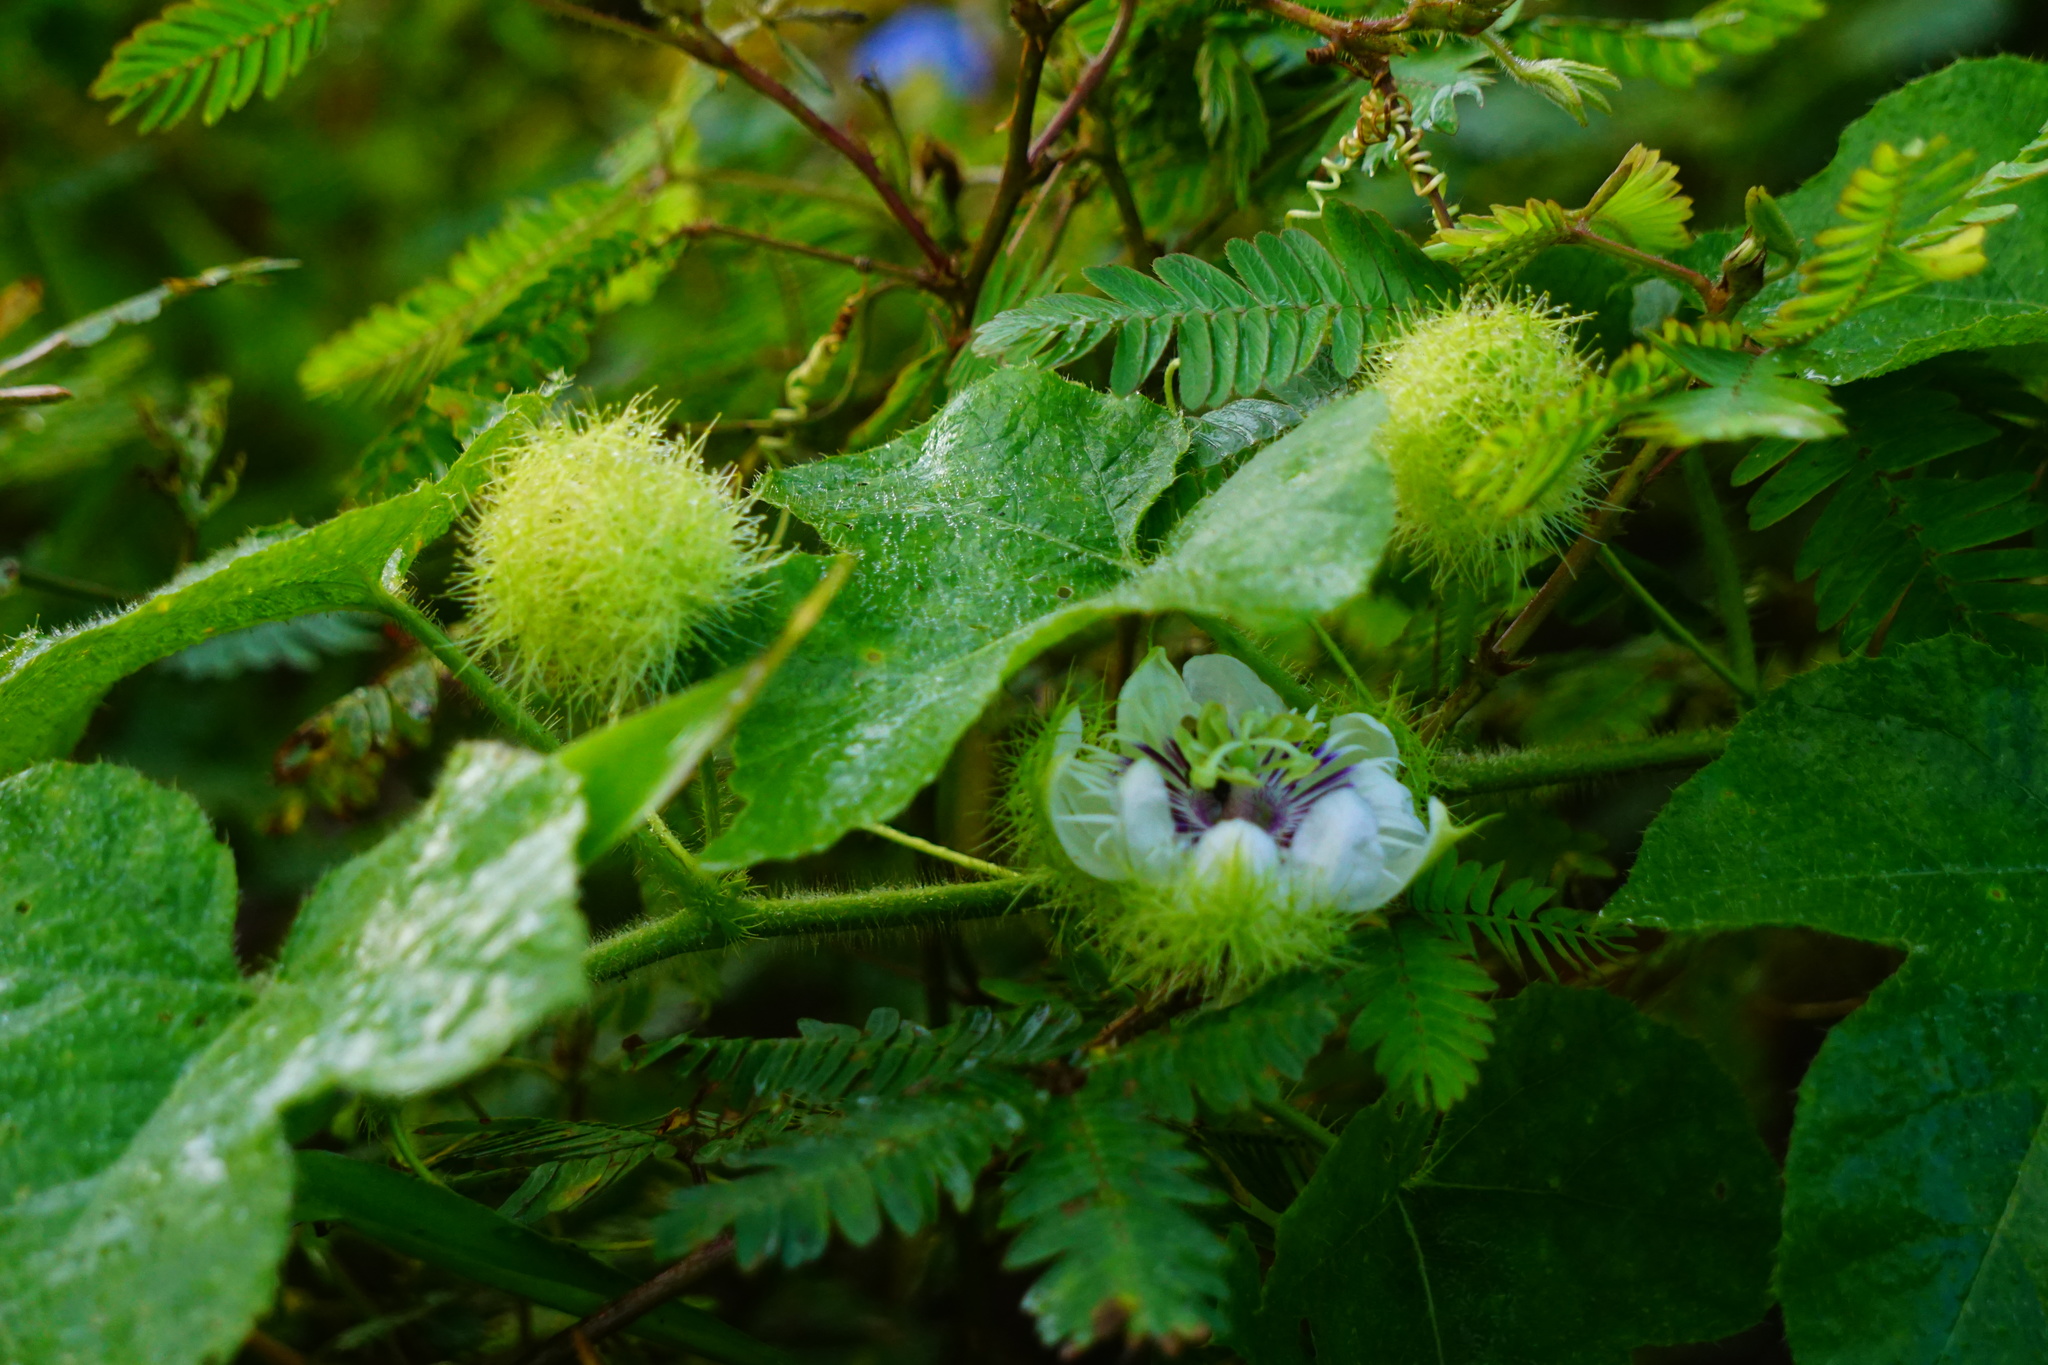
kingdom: Plantae
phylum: Tracheophyta
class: Magnoliopsida
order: Malpighiales
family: Passifloraceae
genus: Passiflora
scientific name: Passiflora foetida
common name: Fetid passionflower
